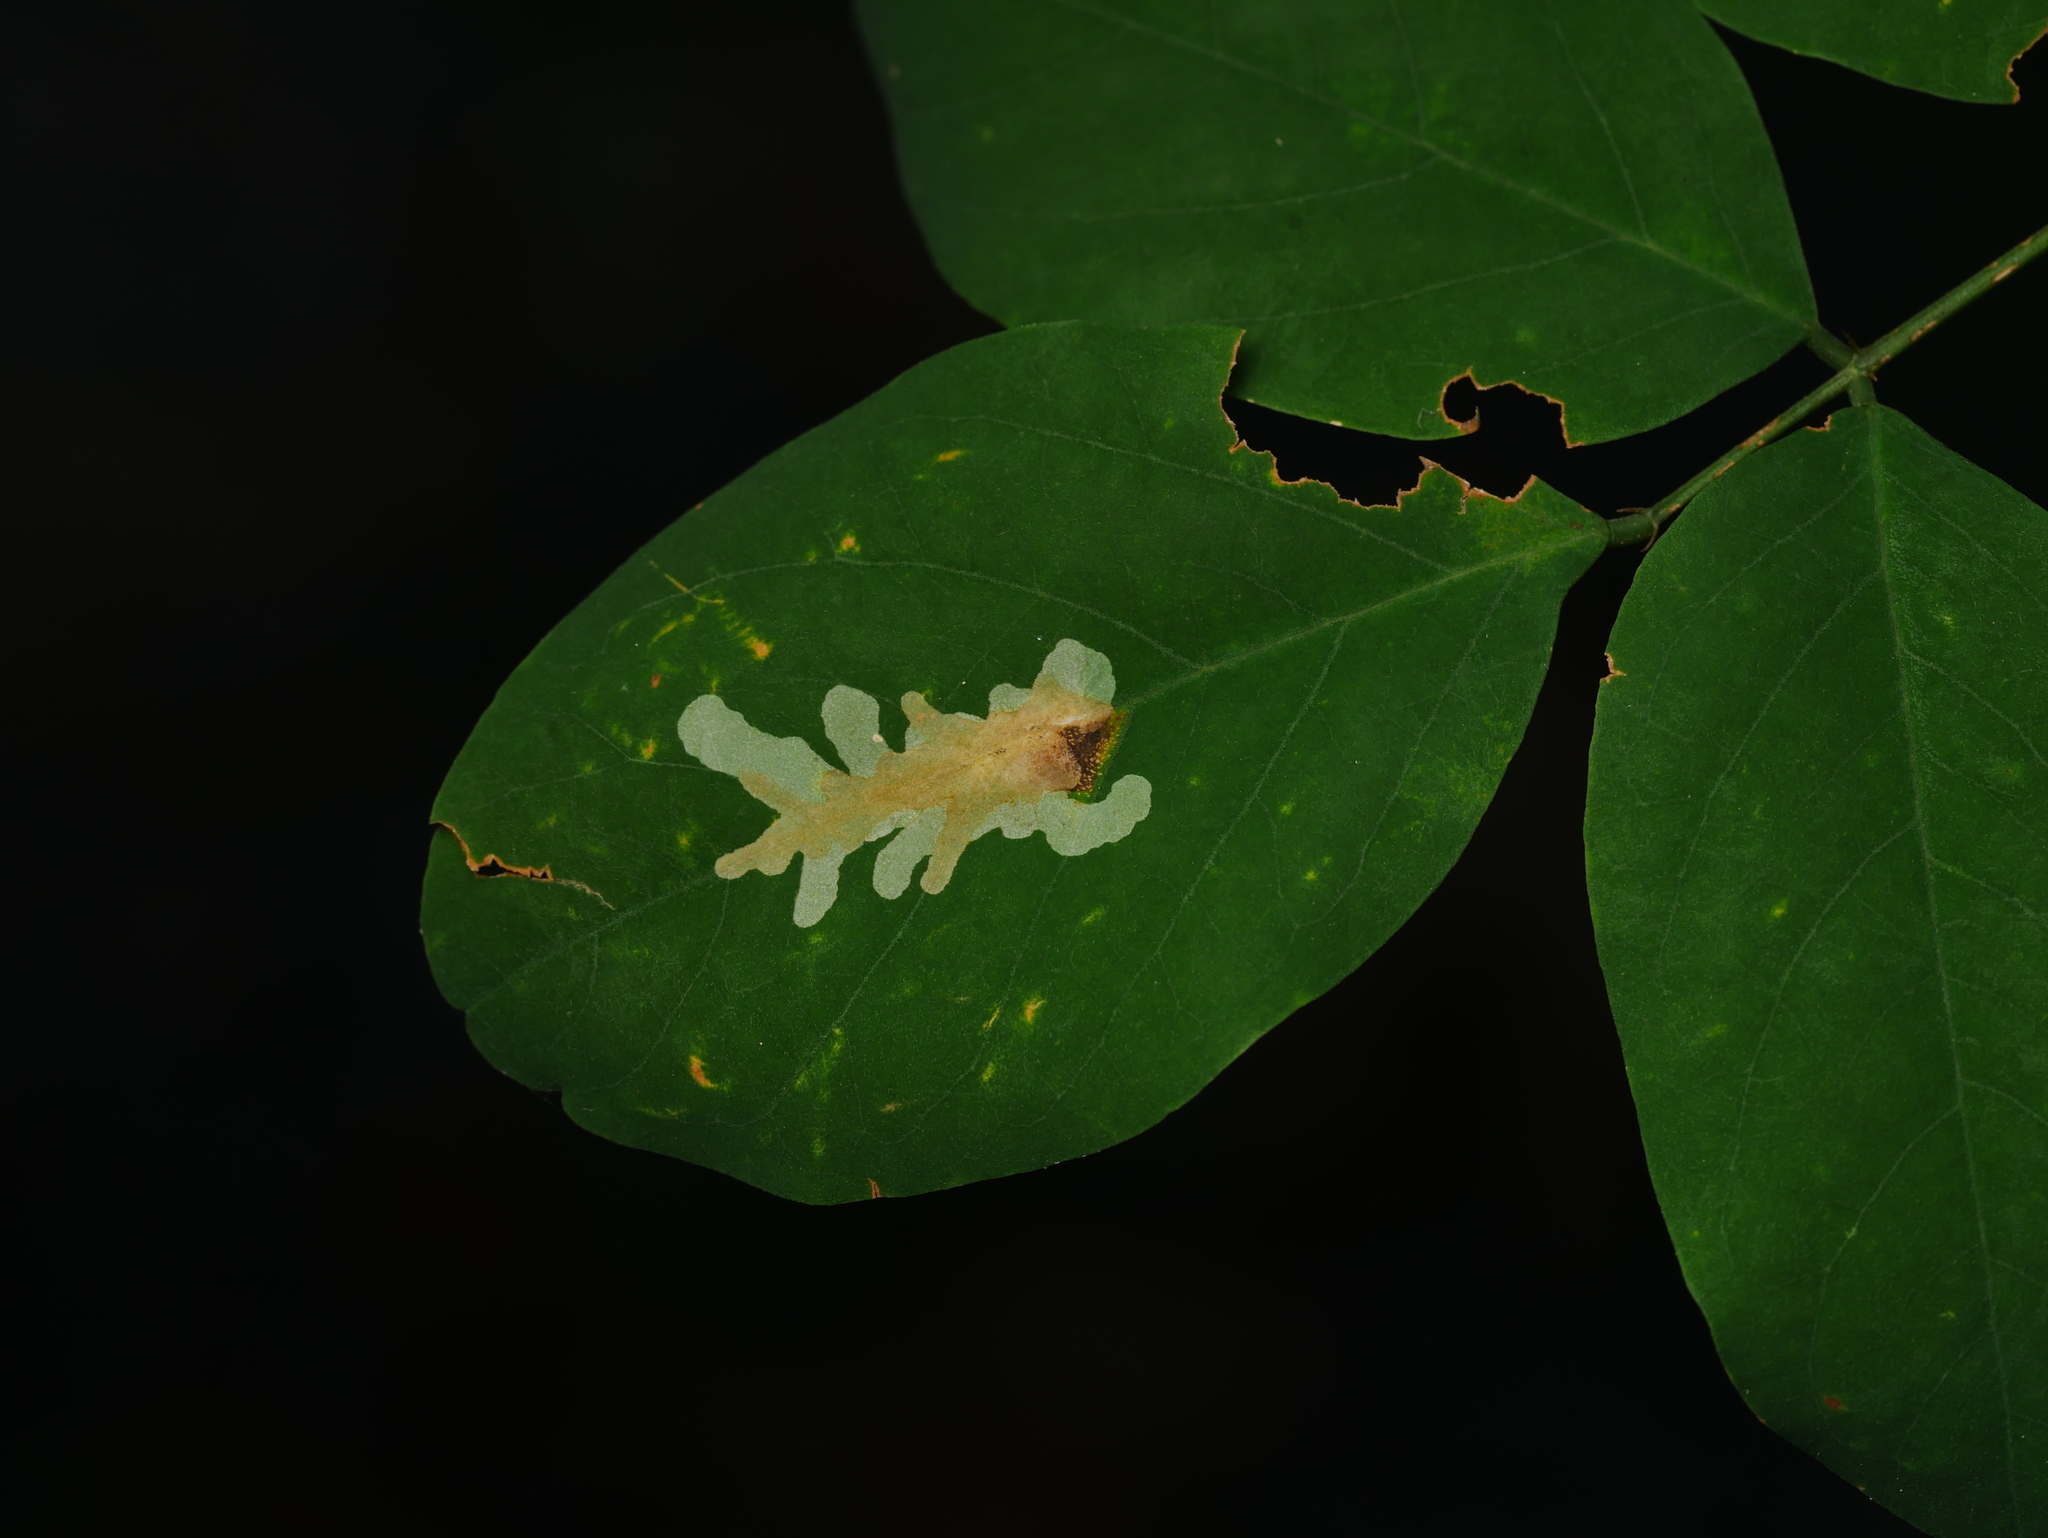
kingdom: Animalia
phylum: Arthropoda
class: Insecta
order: Lepidoptera
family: Gracillariidae
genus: Parectopa
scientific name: Parectopa robiniella
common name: Locust digitate leafminer
